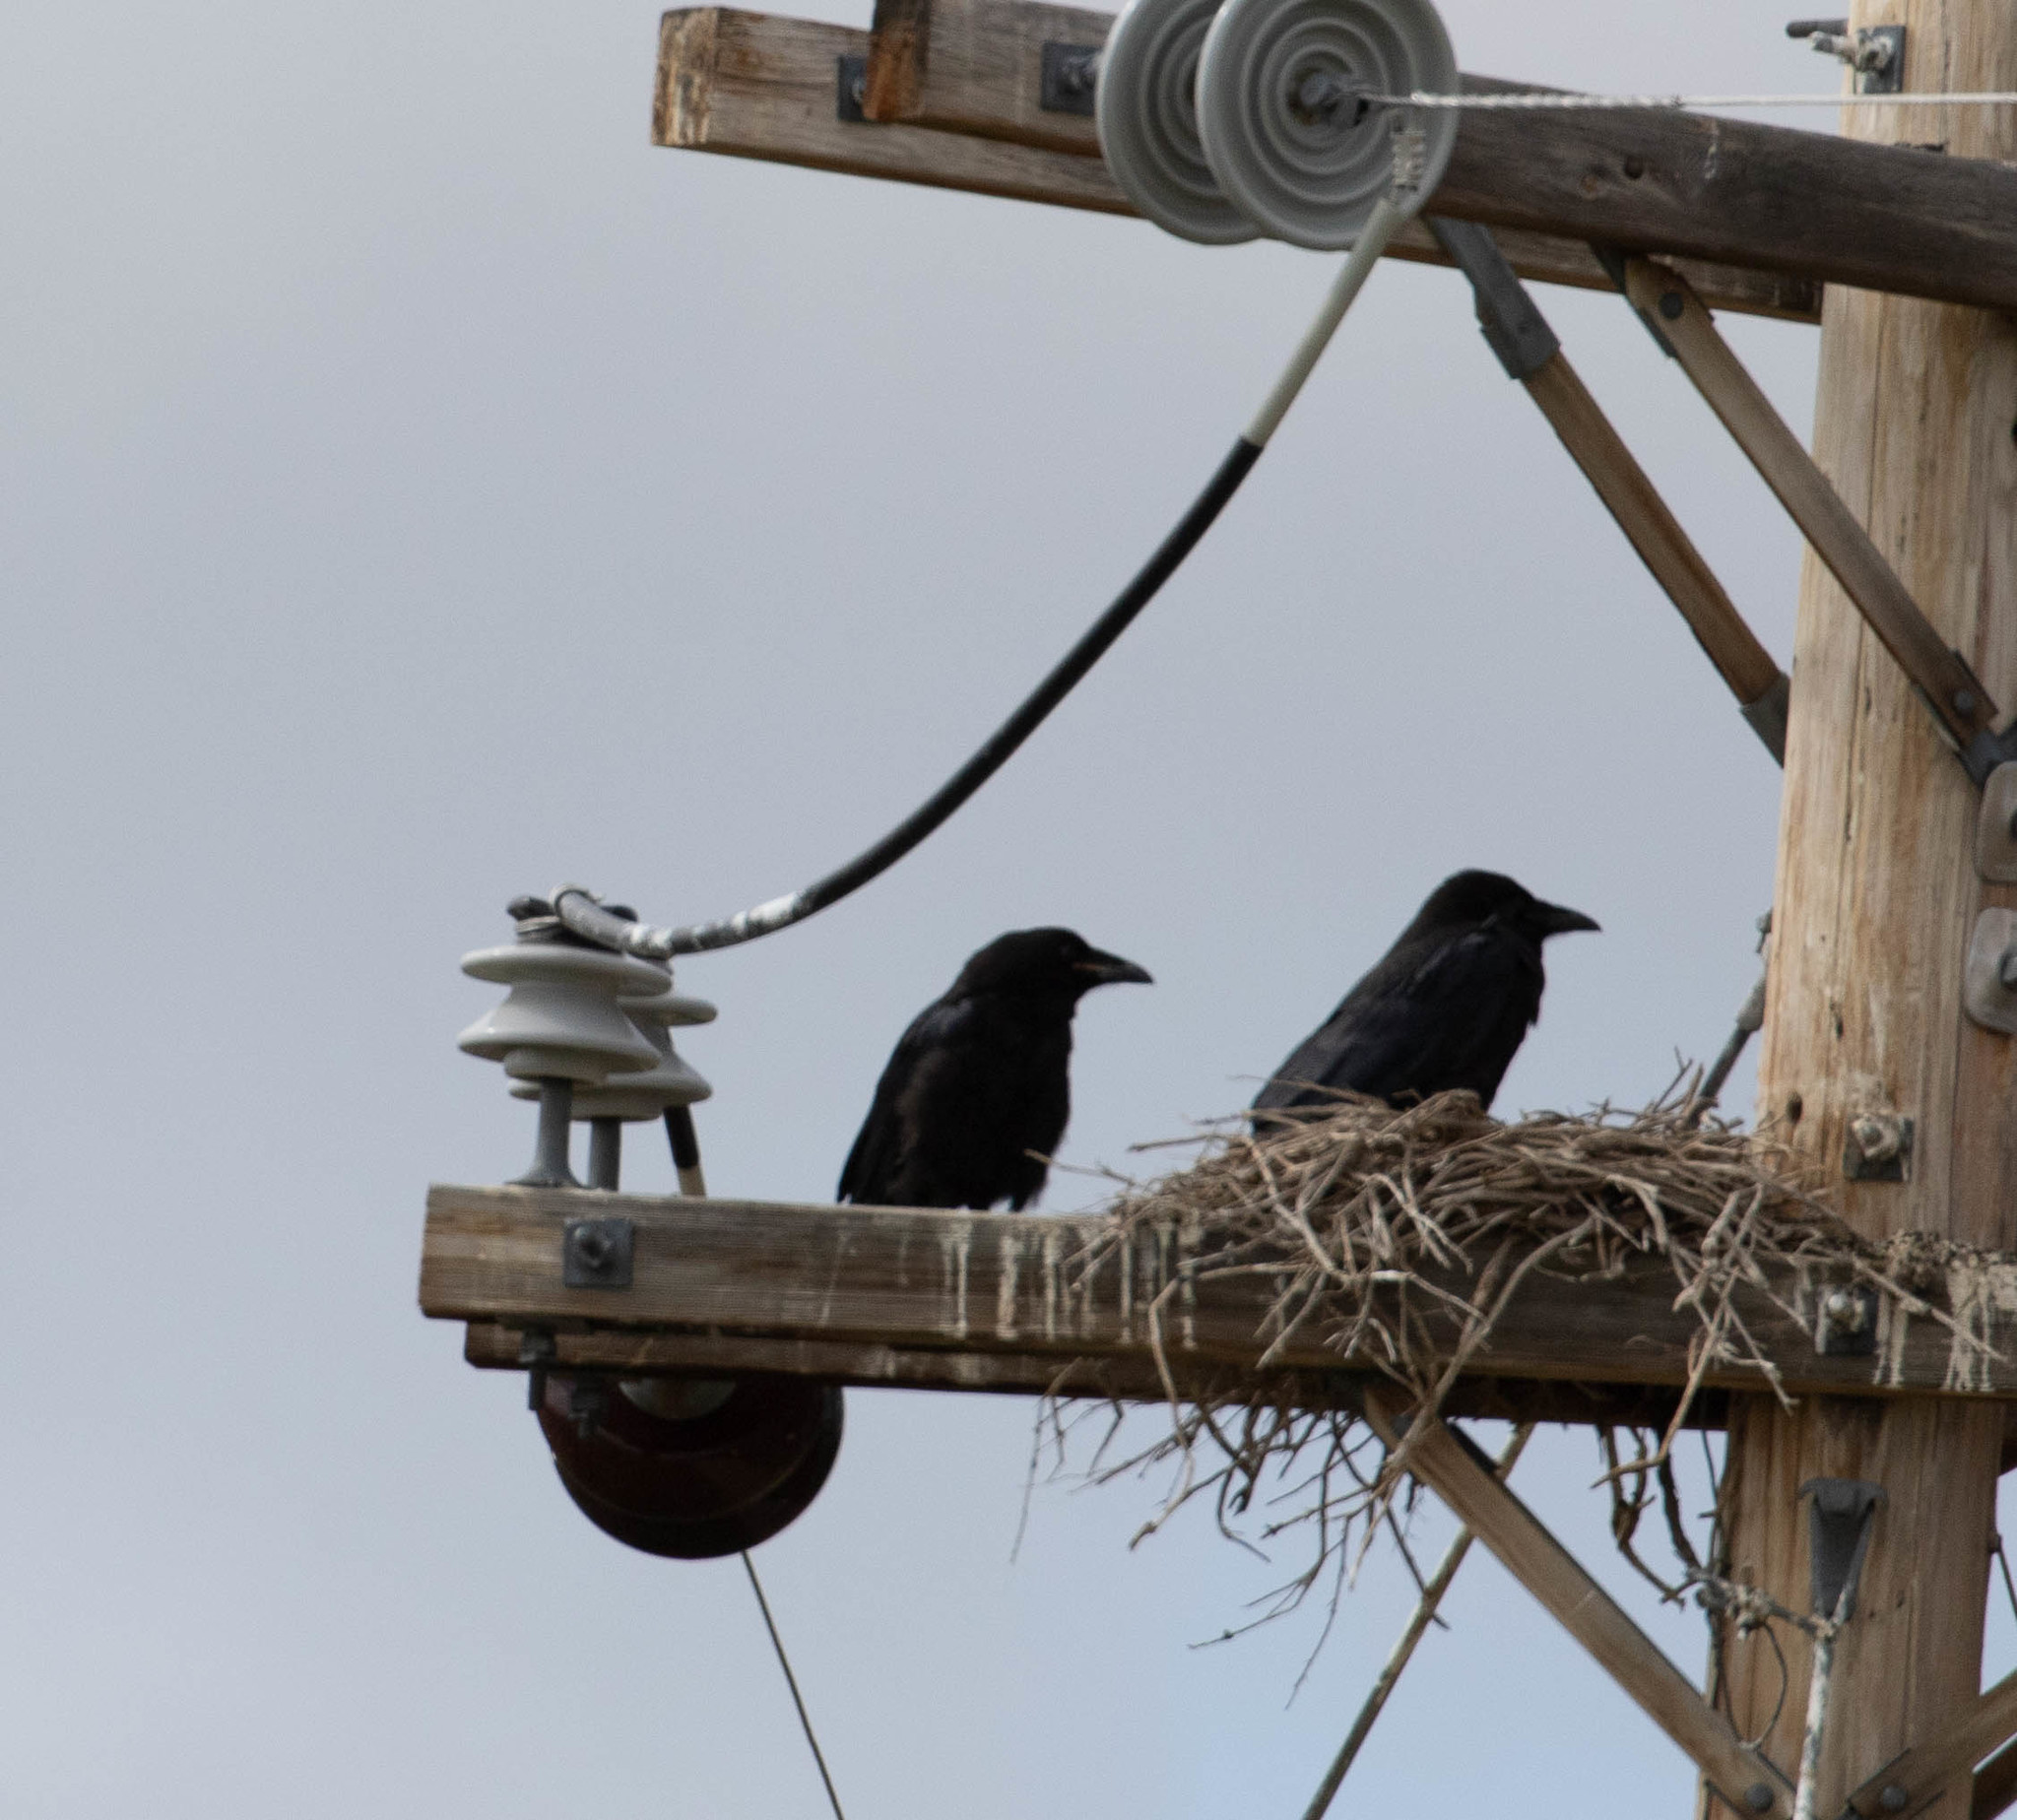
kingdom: Animalia
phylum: Chordata
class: Aves
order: Passeriformes
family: Corvidae
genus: Corvus
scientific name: Corvus corax
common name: Common raven
